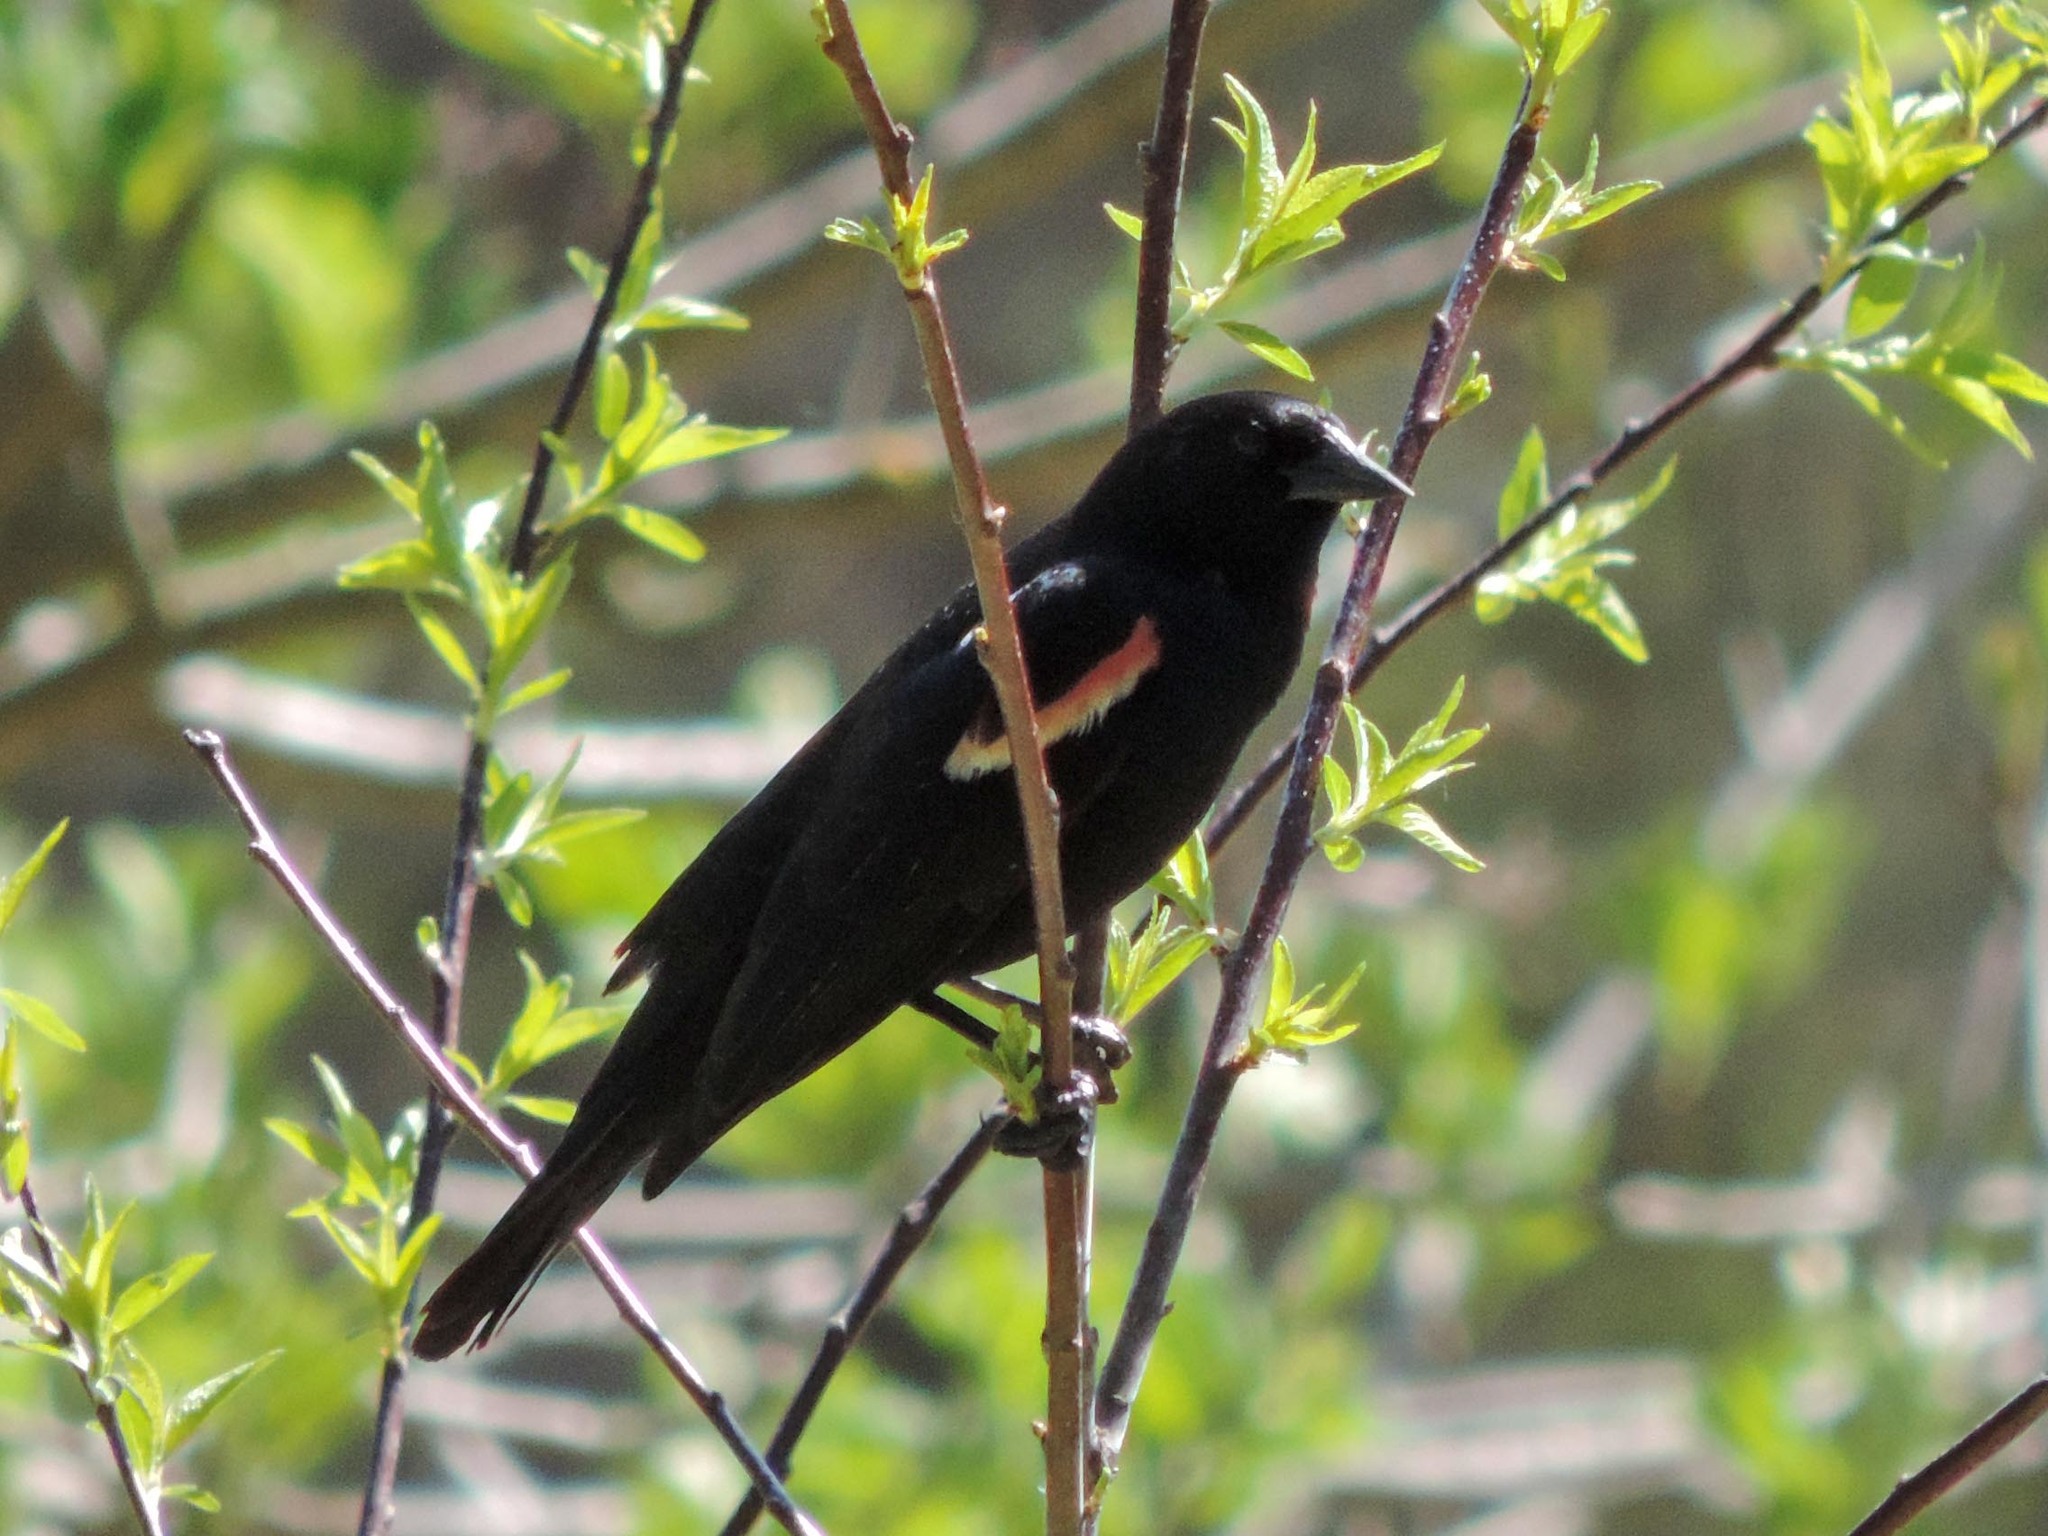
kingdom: Animalia
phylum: Chordata
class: Aves
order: Passeriformes
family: Icteridae
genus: Agelaius
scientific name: Agelaius phoeniceus
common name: Red-winged blackbird
